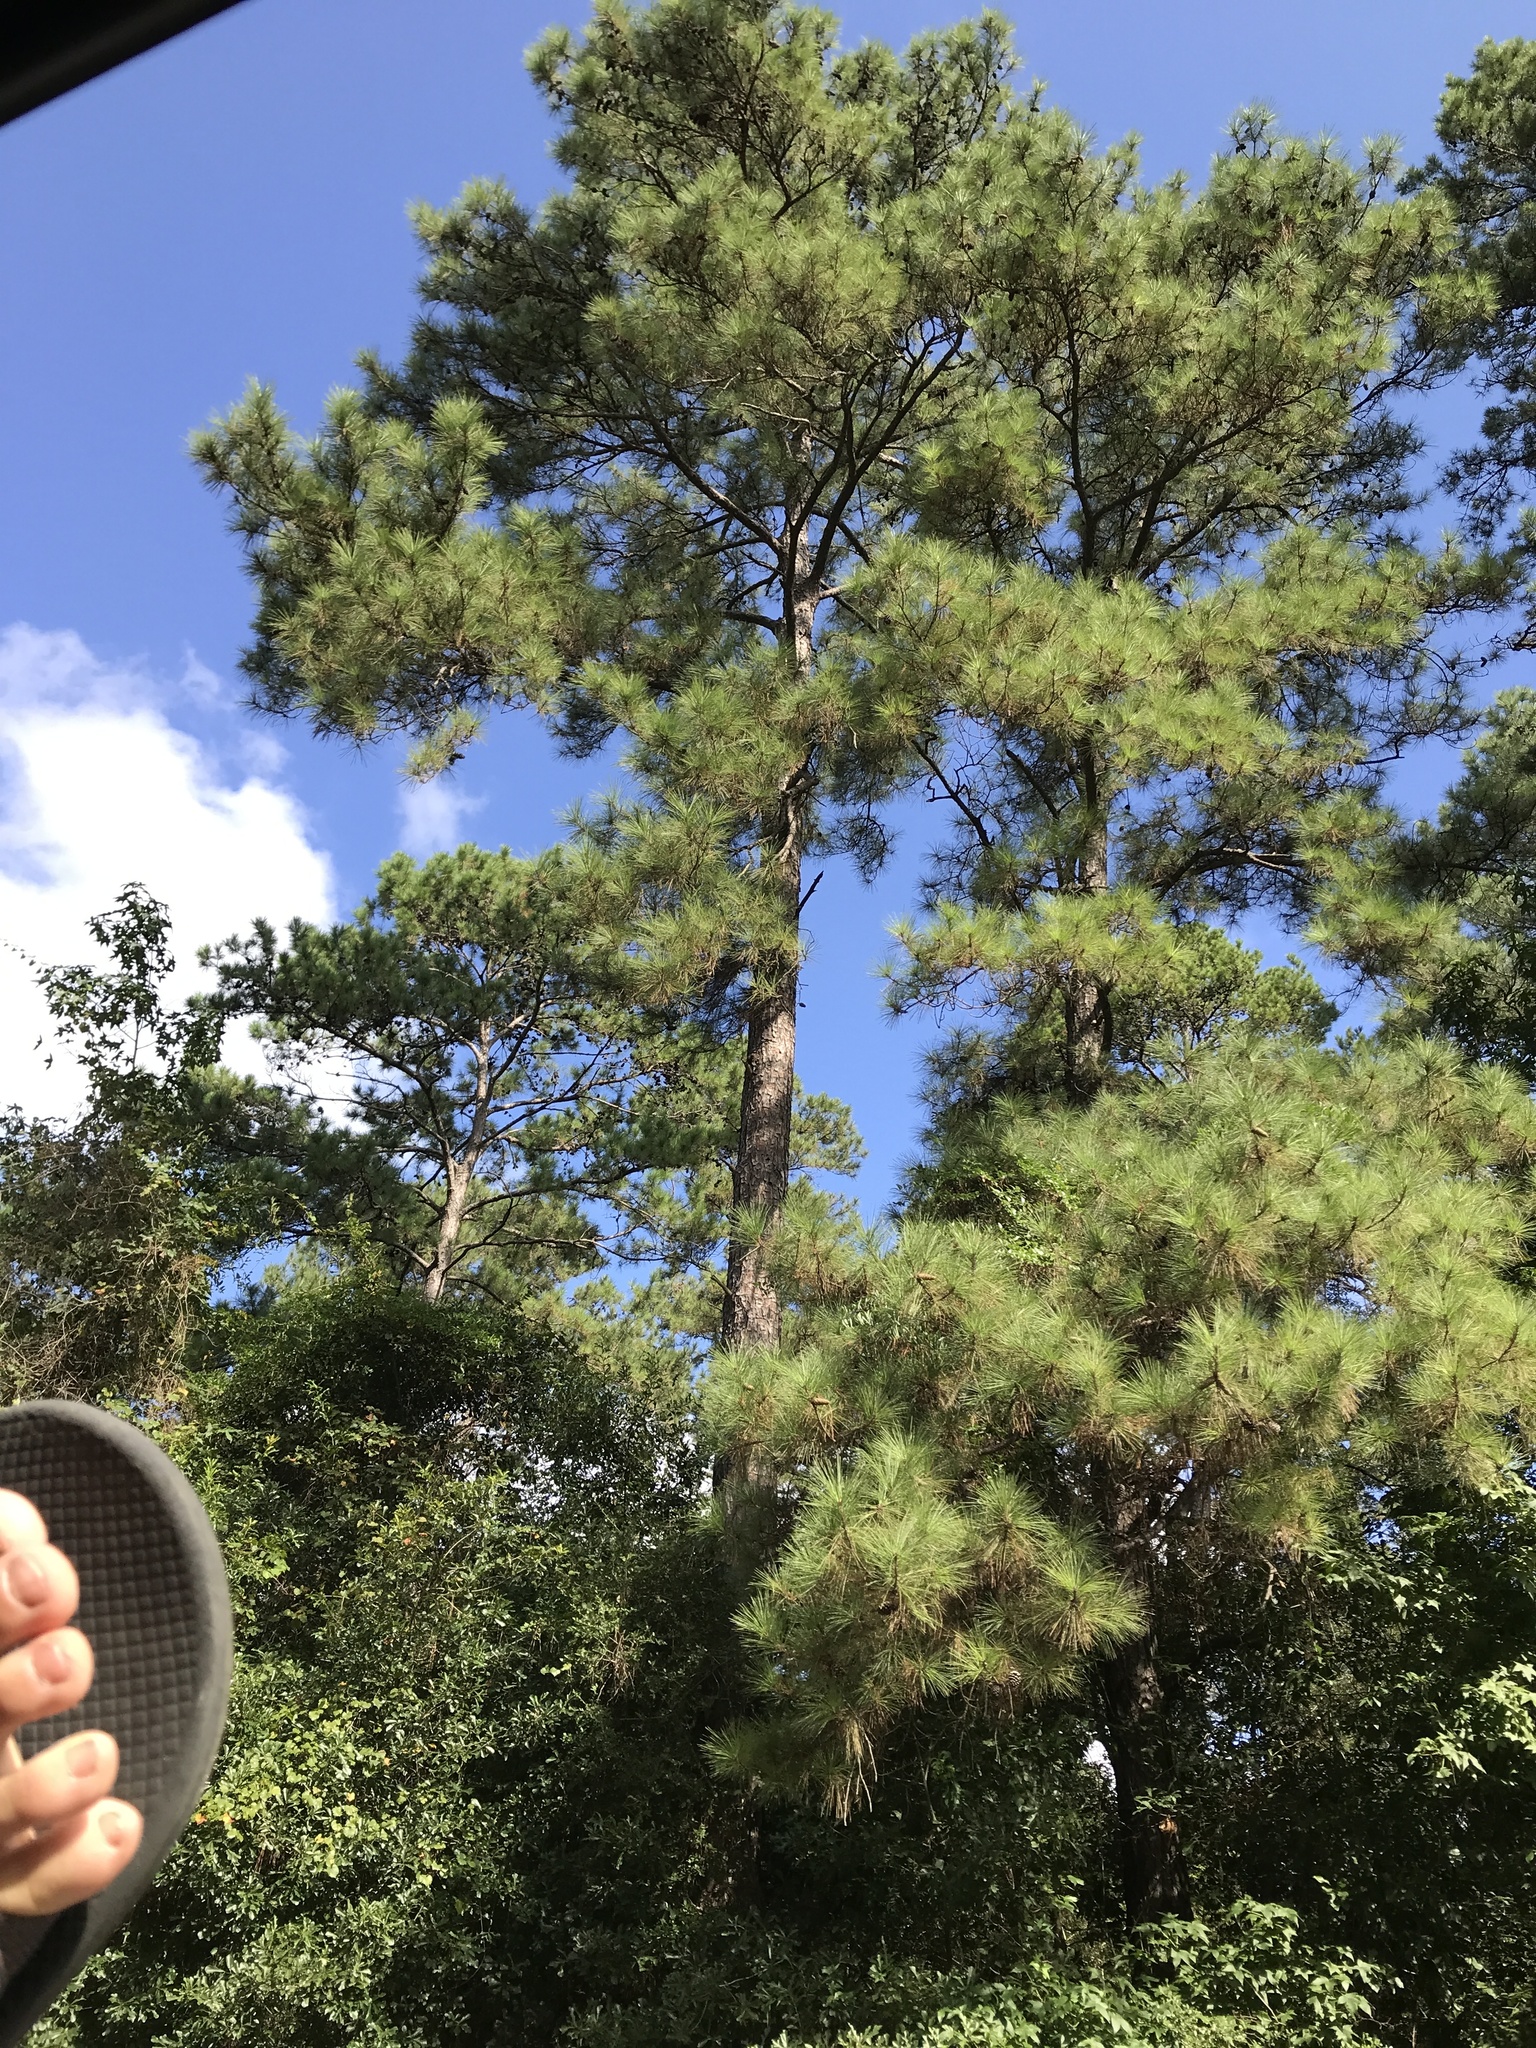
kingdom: Plantae
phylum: Tracheophyta
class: Pinopsida
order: Pinales
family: Pinaceae
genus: Pinus
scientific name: Pinus taeda
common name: Loblolly pine
